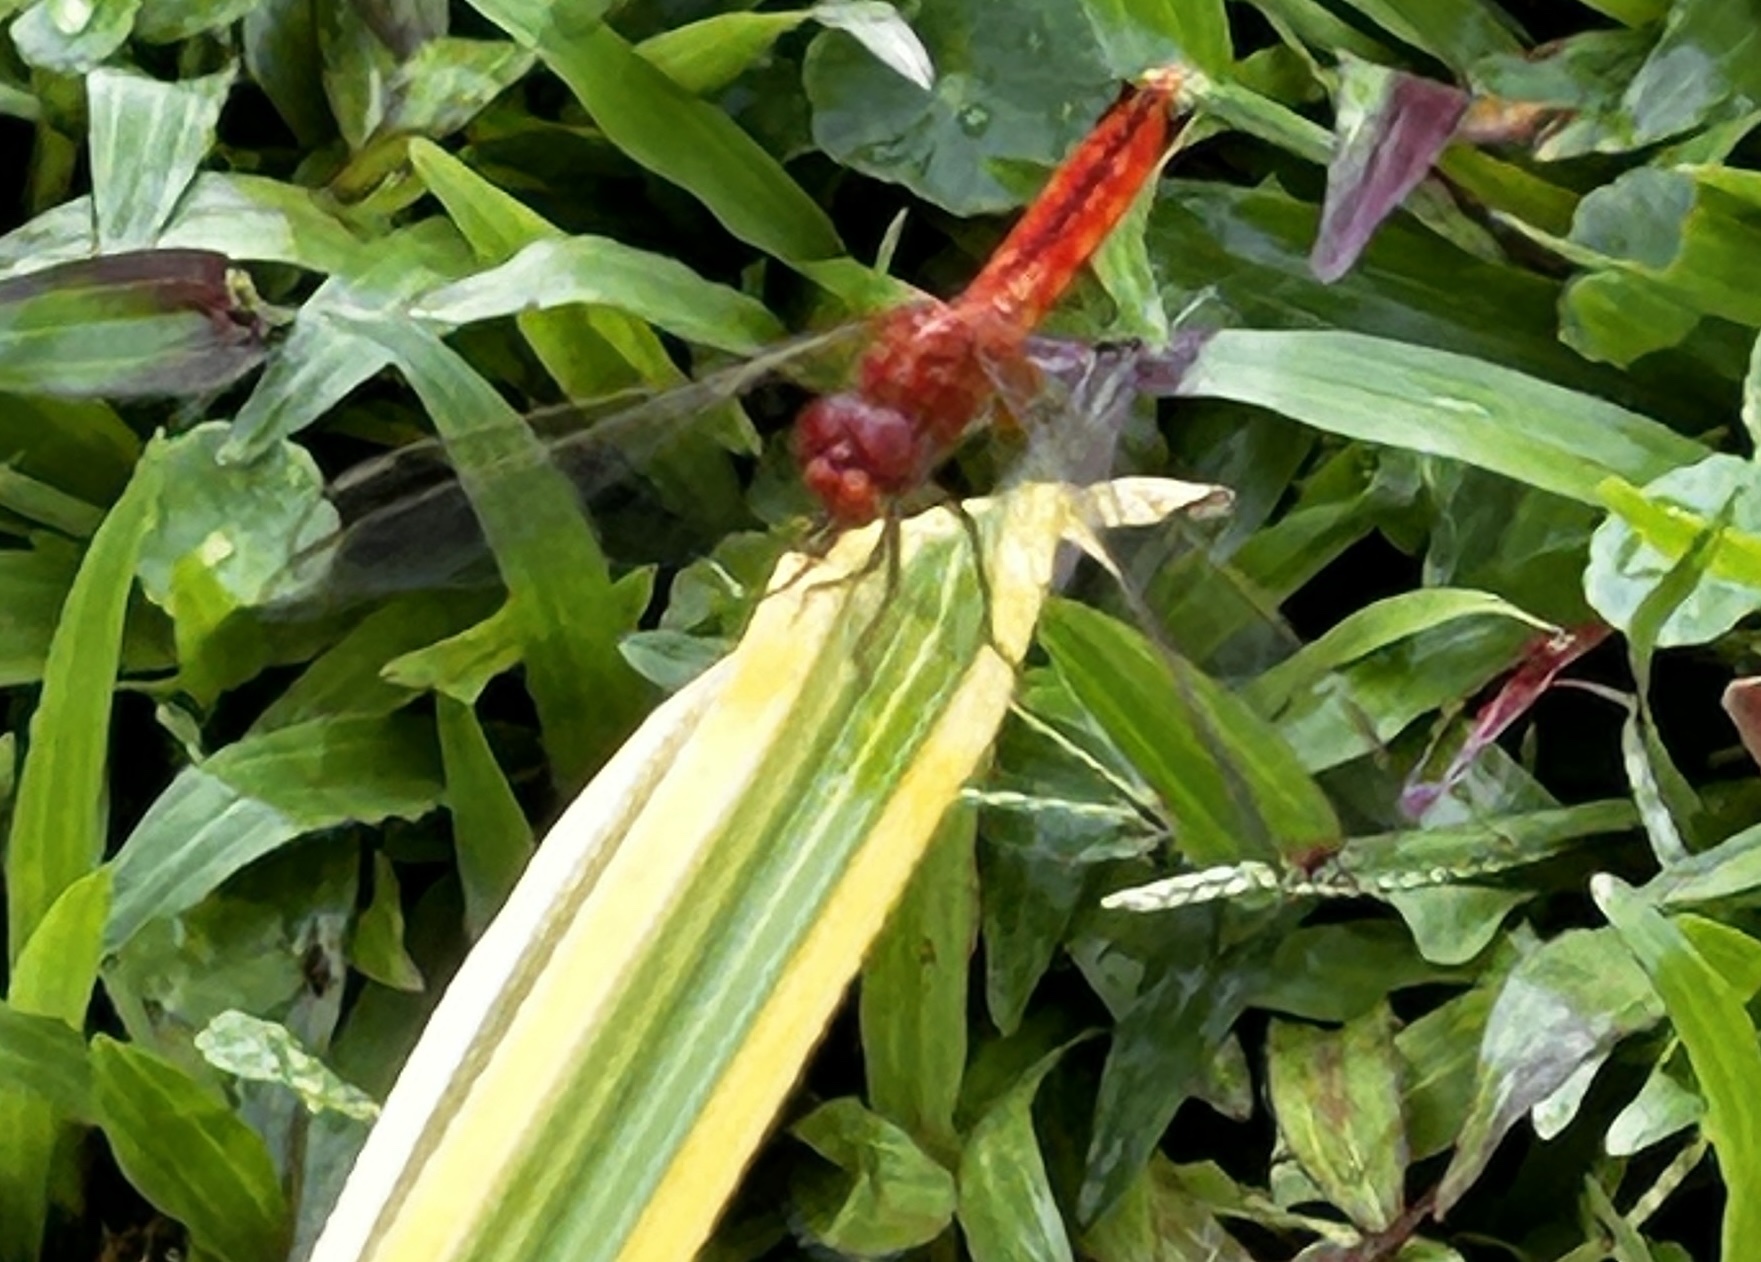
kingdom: Animalia
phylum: Arthropoda
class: Insecta
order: Odonata
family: Libellulidae
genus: Crocothemis
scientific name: Crocothemis servilia
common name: Scarlet skimmer
